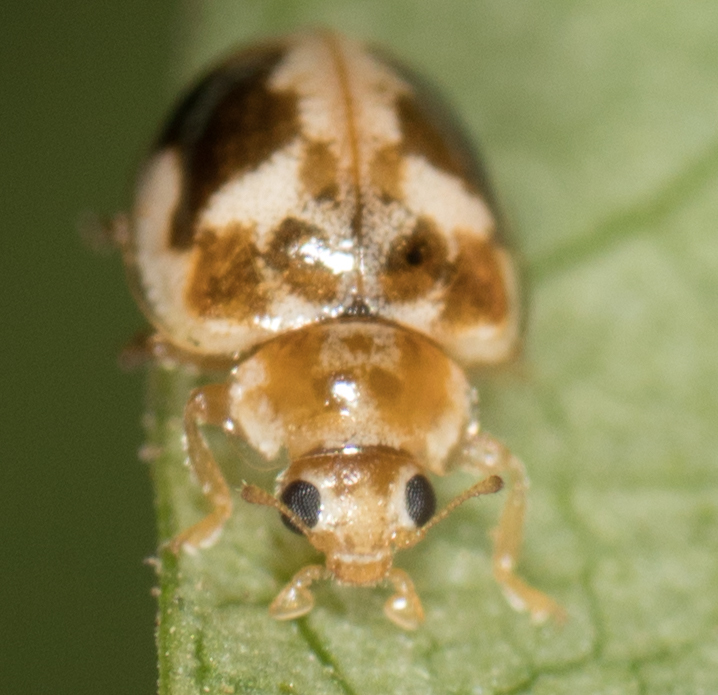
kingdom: Animalia
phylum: Arthropoda
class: Insecta
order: Coleoptera
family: Coccinellidae
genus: Psyllobora
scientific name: Psyllobora renifer
